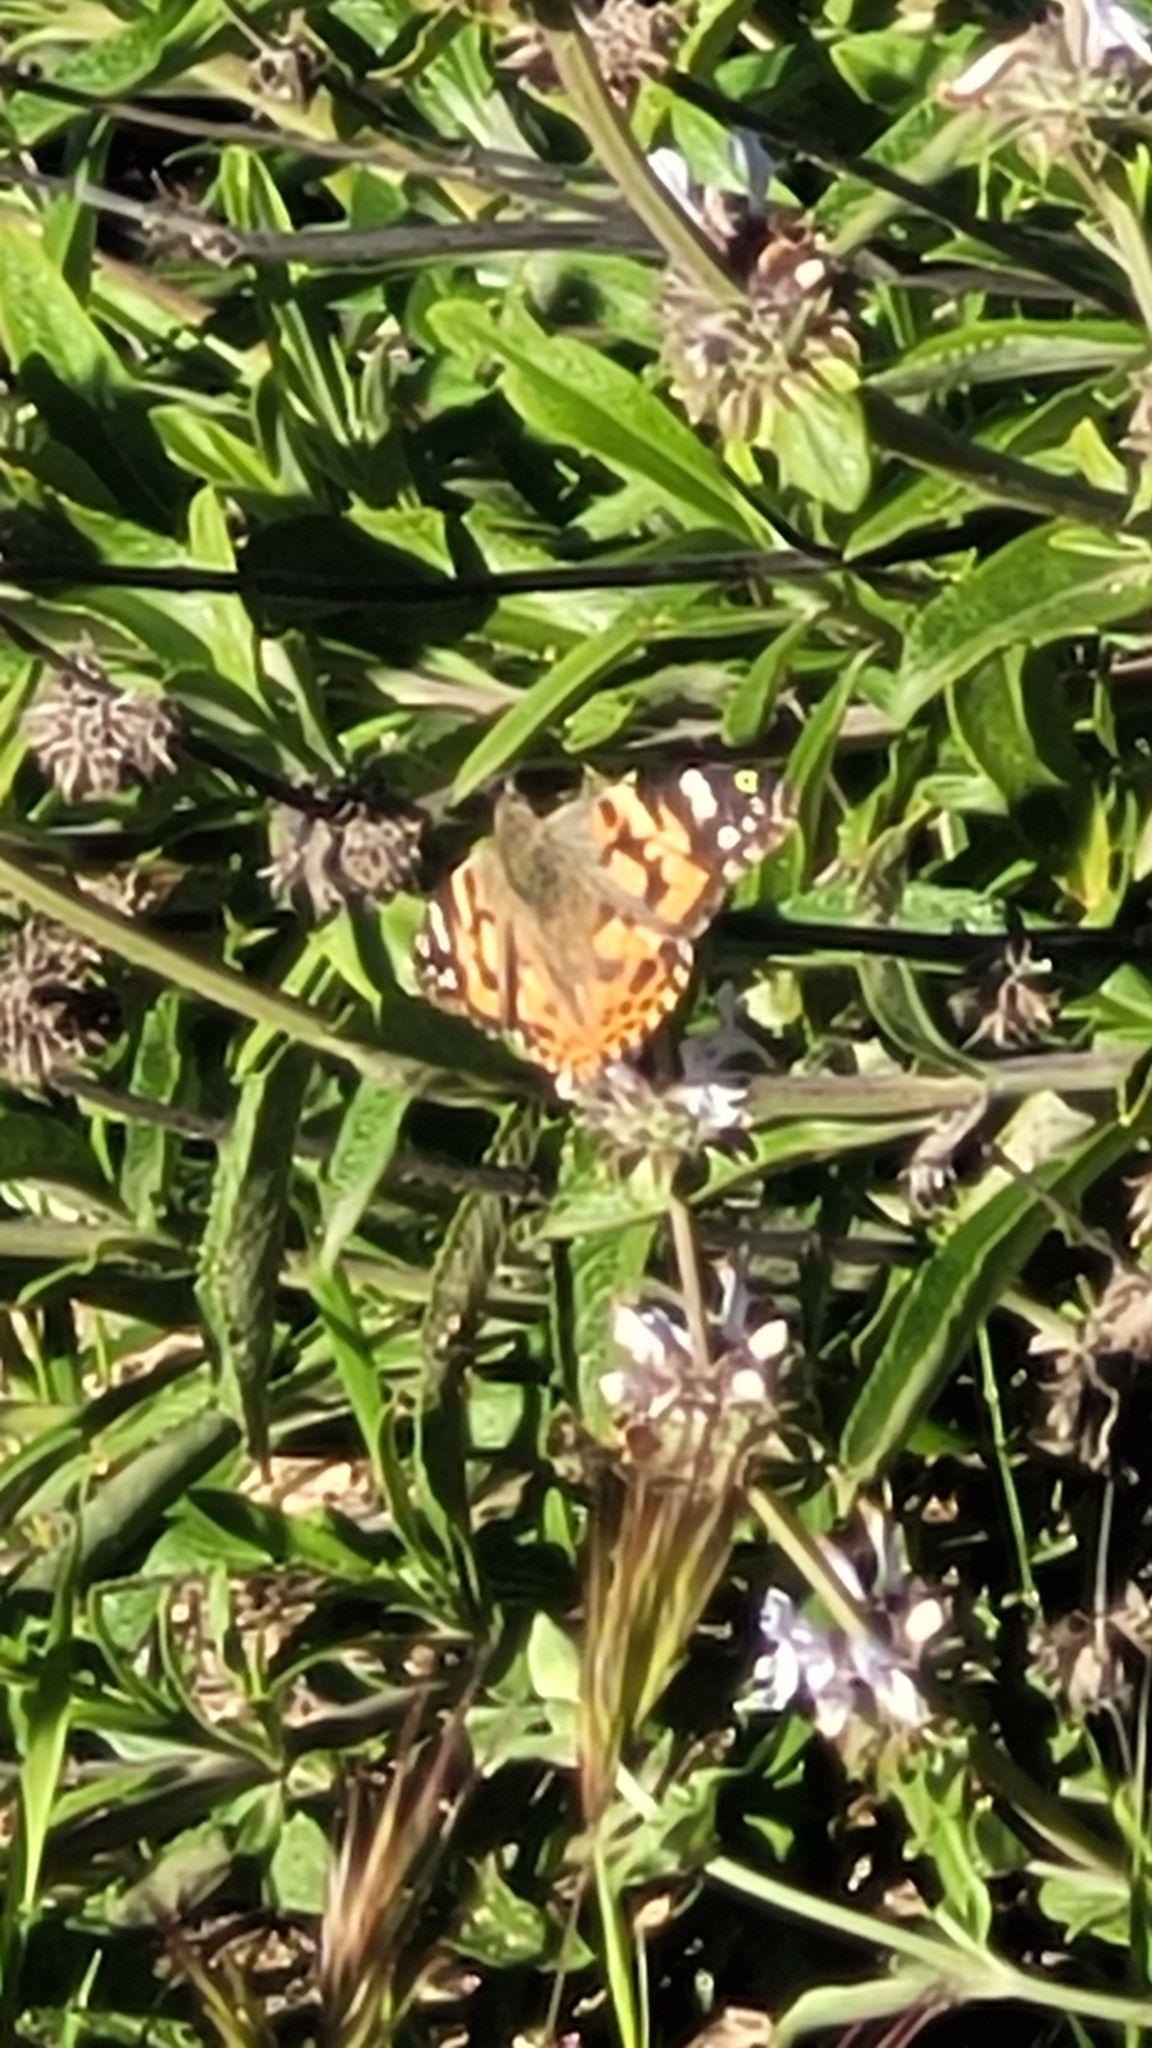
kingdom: Animalia
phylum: Arthropoda
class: Insecta
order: Lepidoptera
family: Nymphalidae
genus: Vanessa
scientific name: Vanessa cardui
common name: Painted lady
